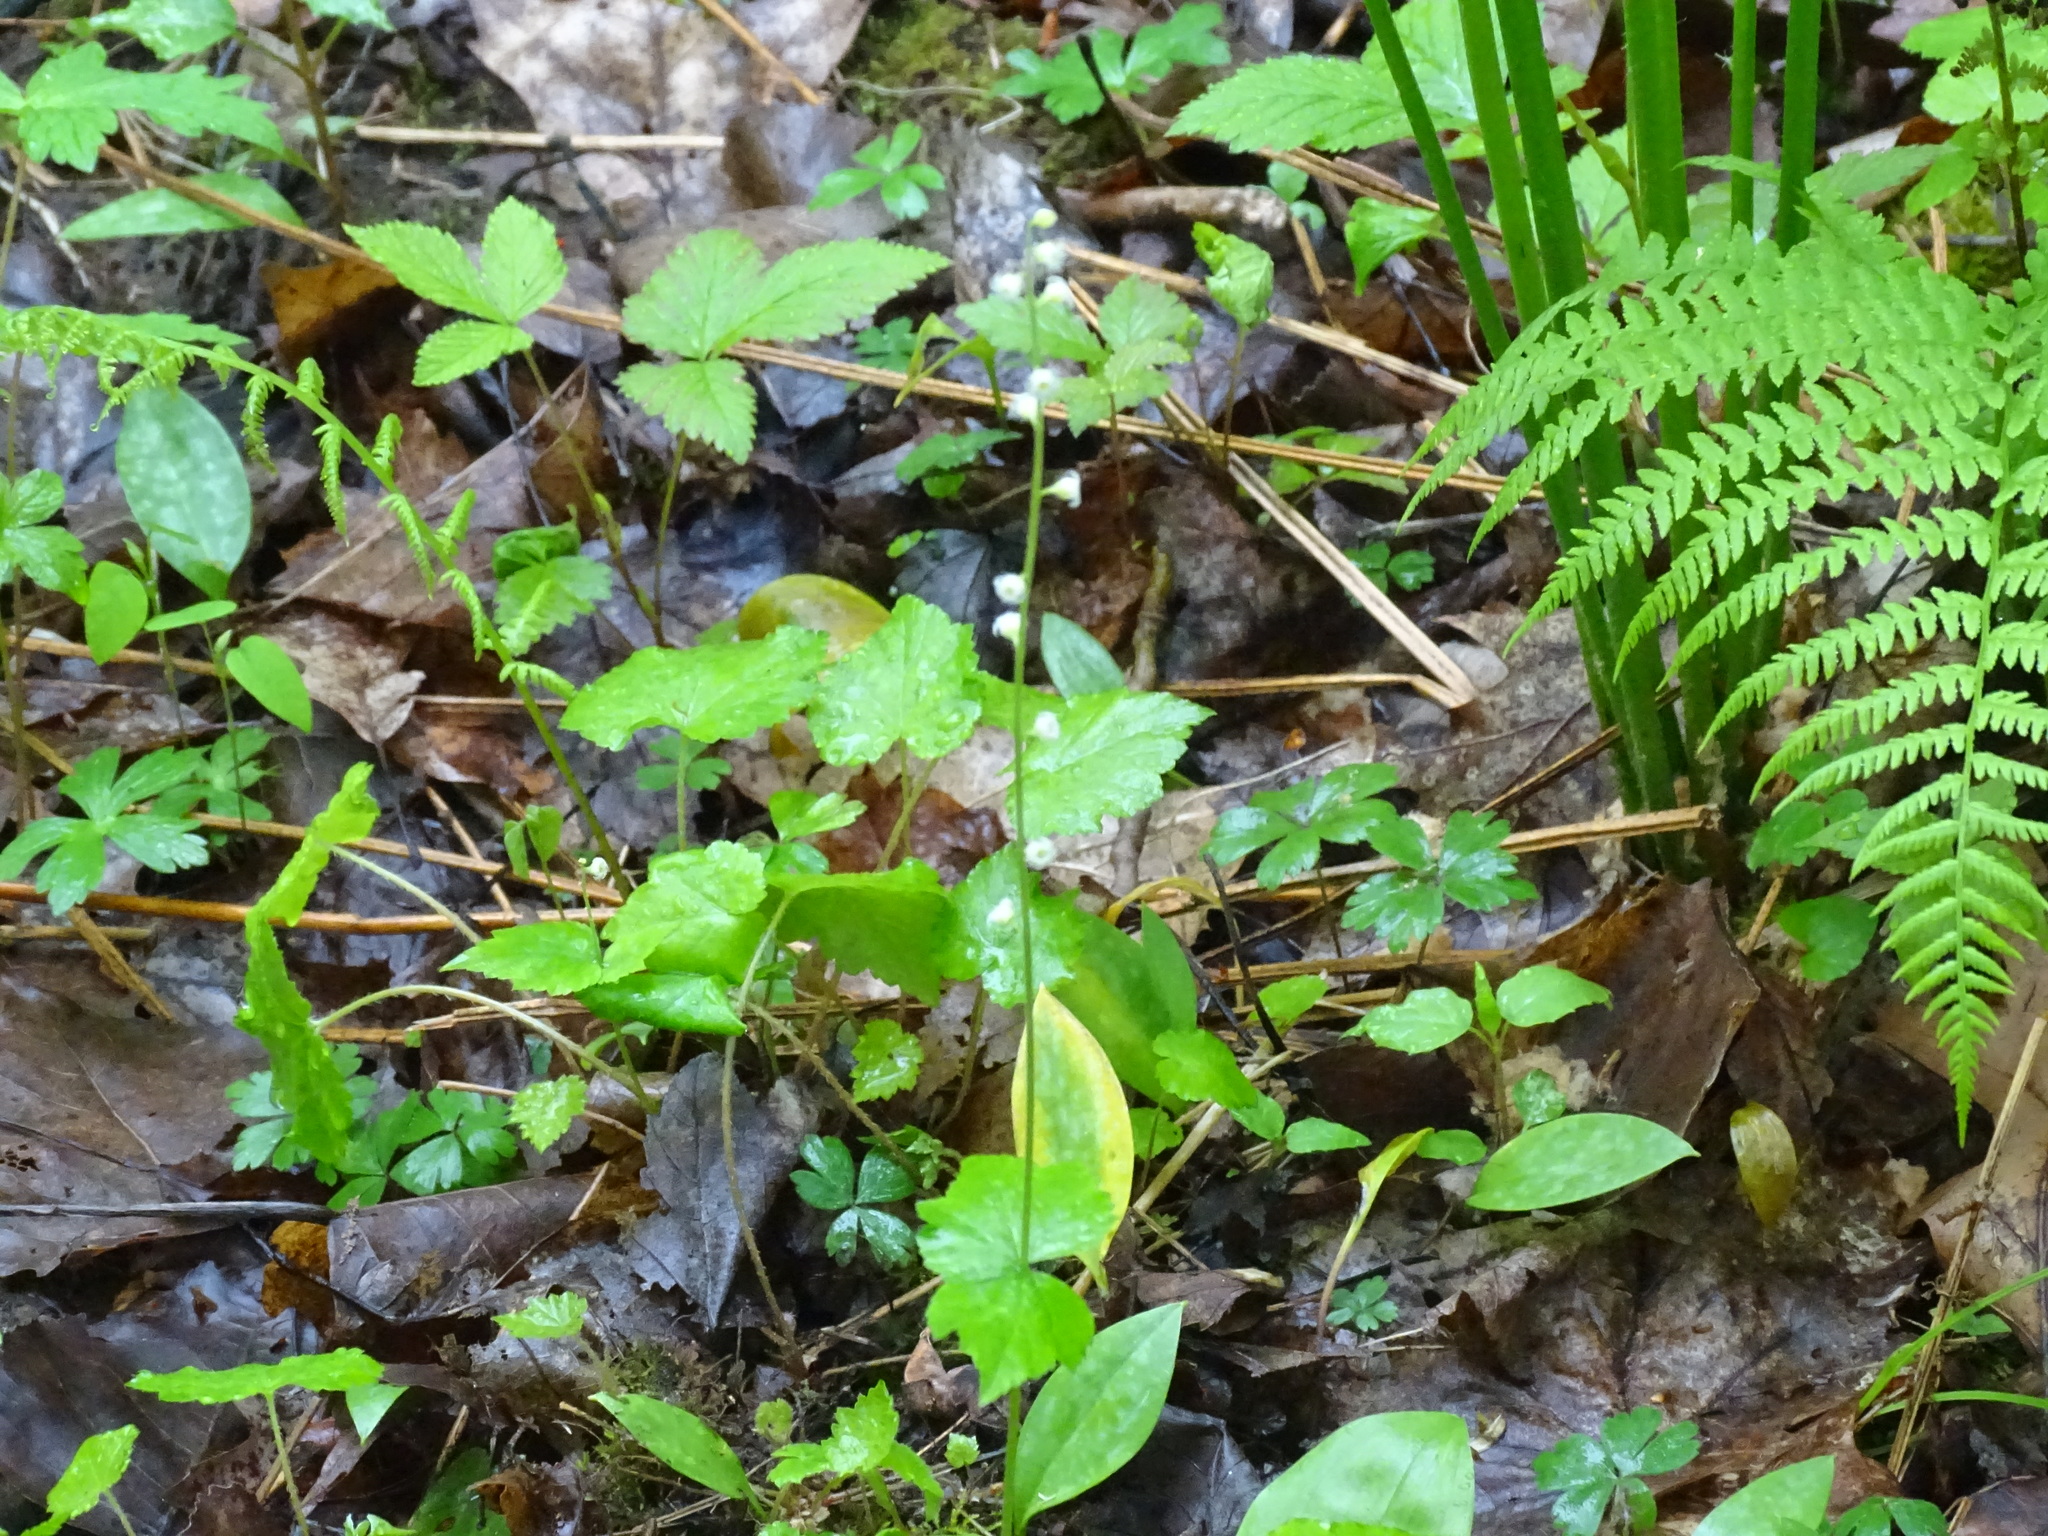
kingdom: Plantae
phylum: Tracheophyta
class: Magnoliopsida
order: Saxifragales
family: Saxifragaceae
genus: Mitella
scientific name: Mitella diphylla
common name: Coolwort
